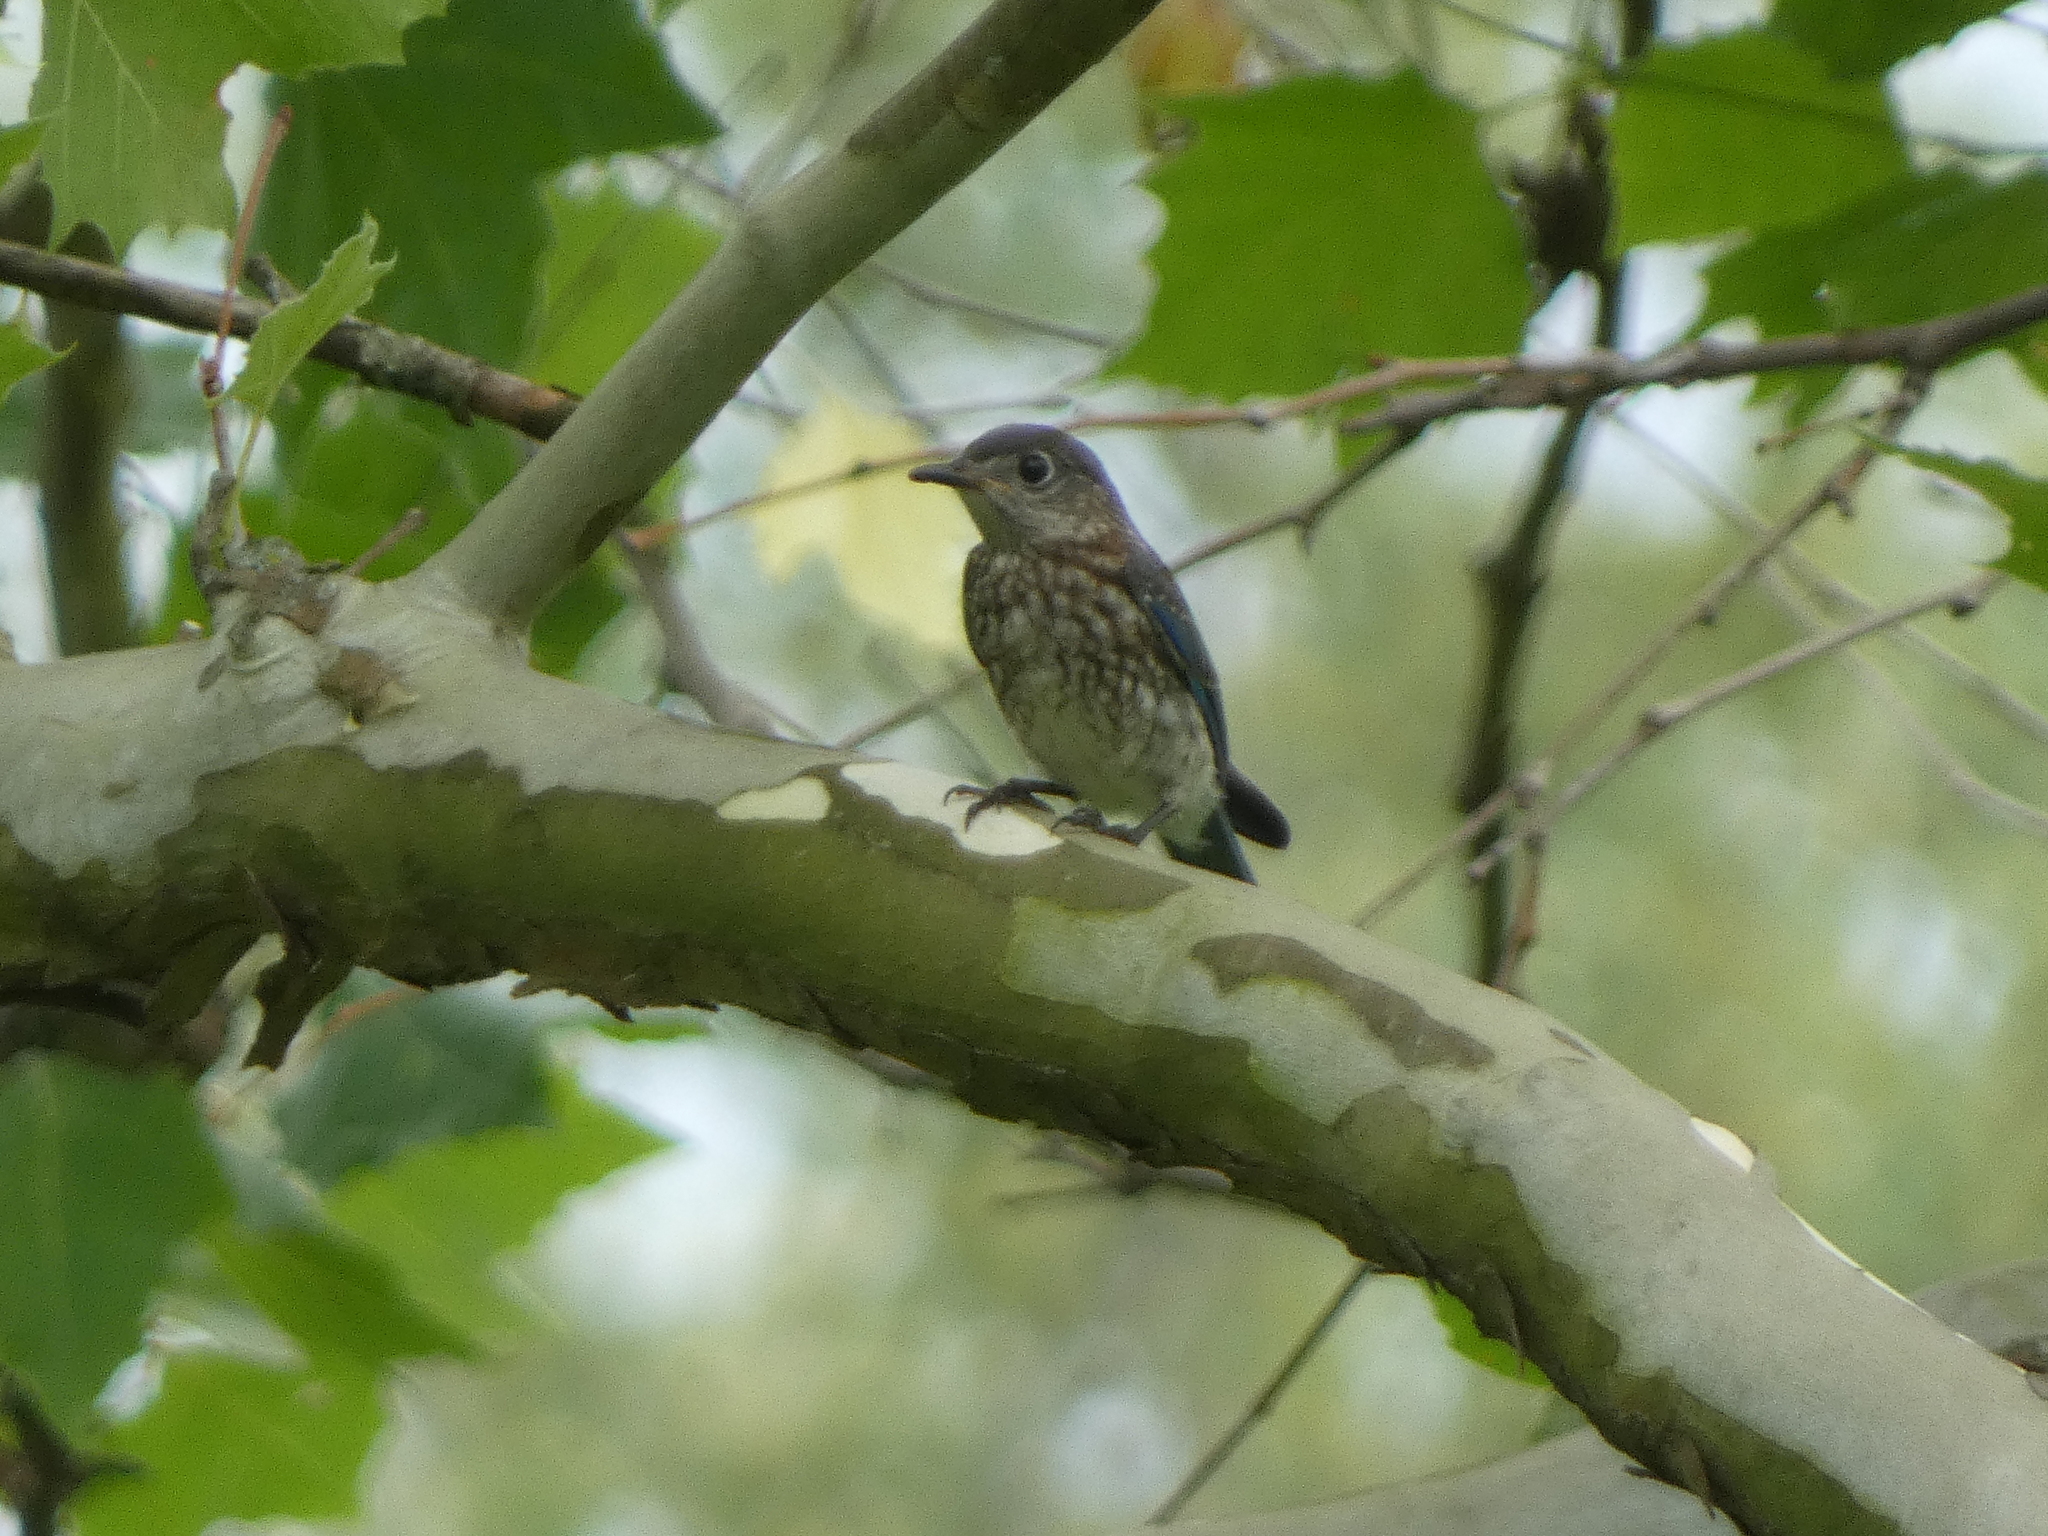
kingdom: Animalia
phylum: Chordata
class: Aves
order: Passeriformes
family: Turdidae
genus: Sialia
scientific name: Sialia sialis
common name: Eastern bluebird
